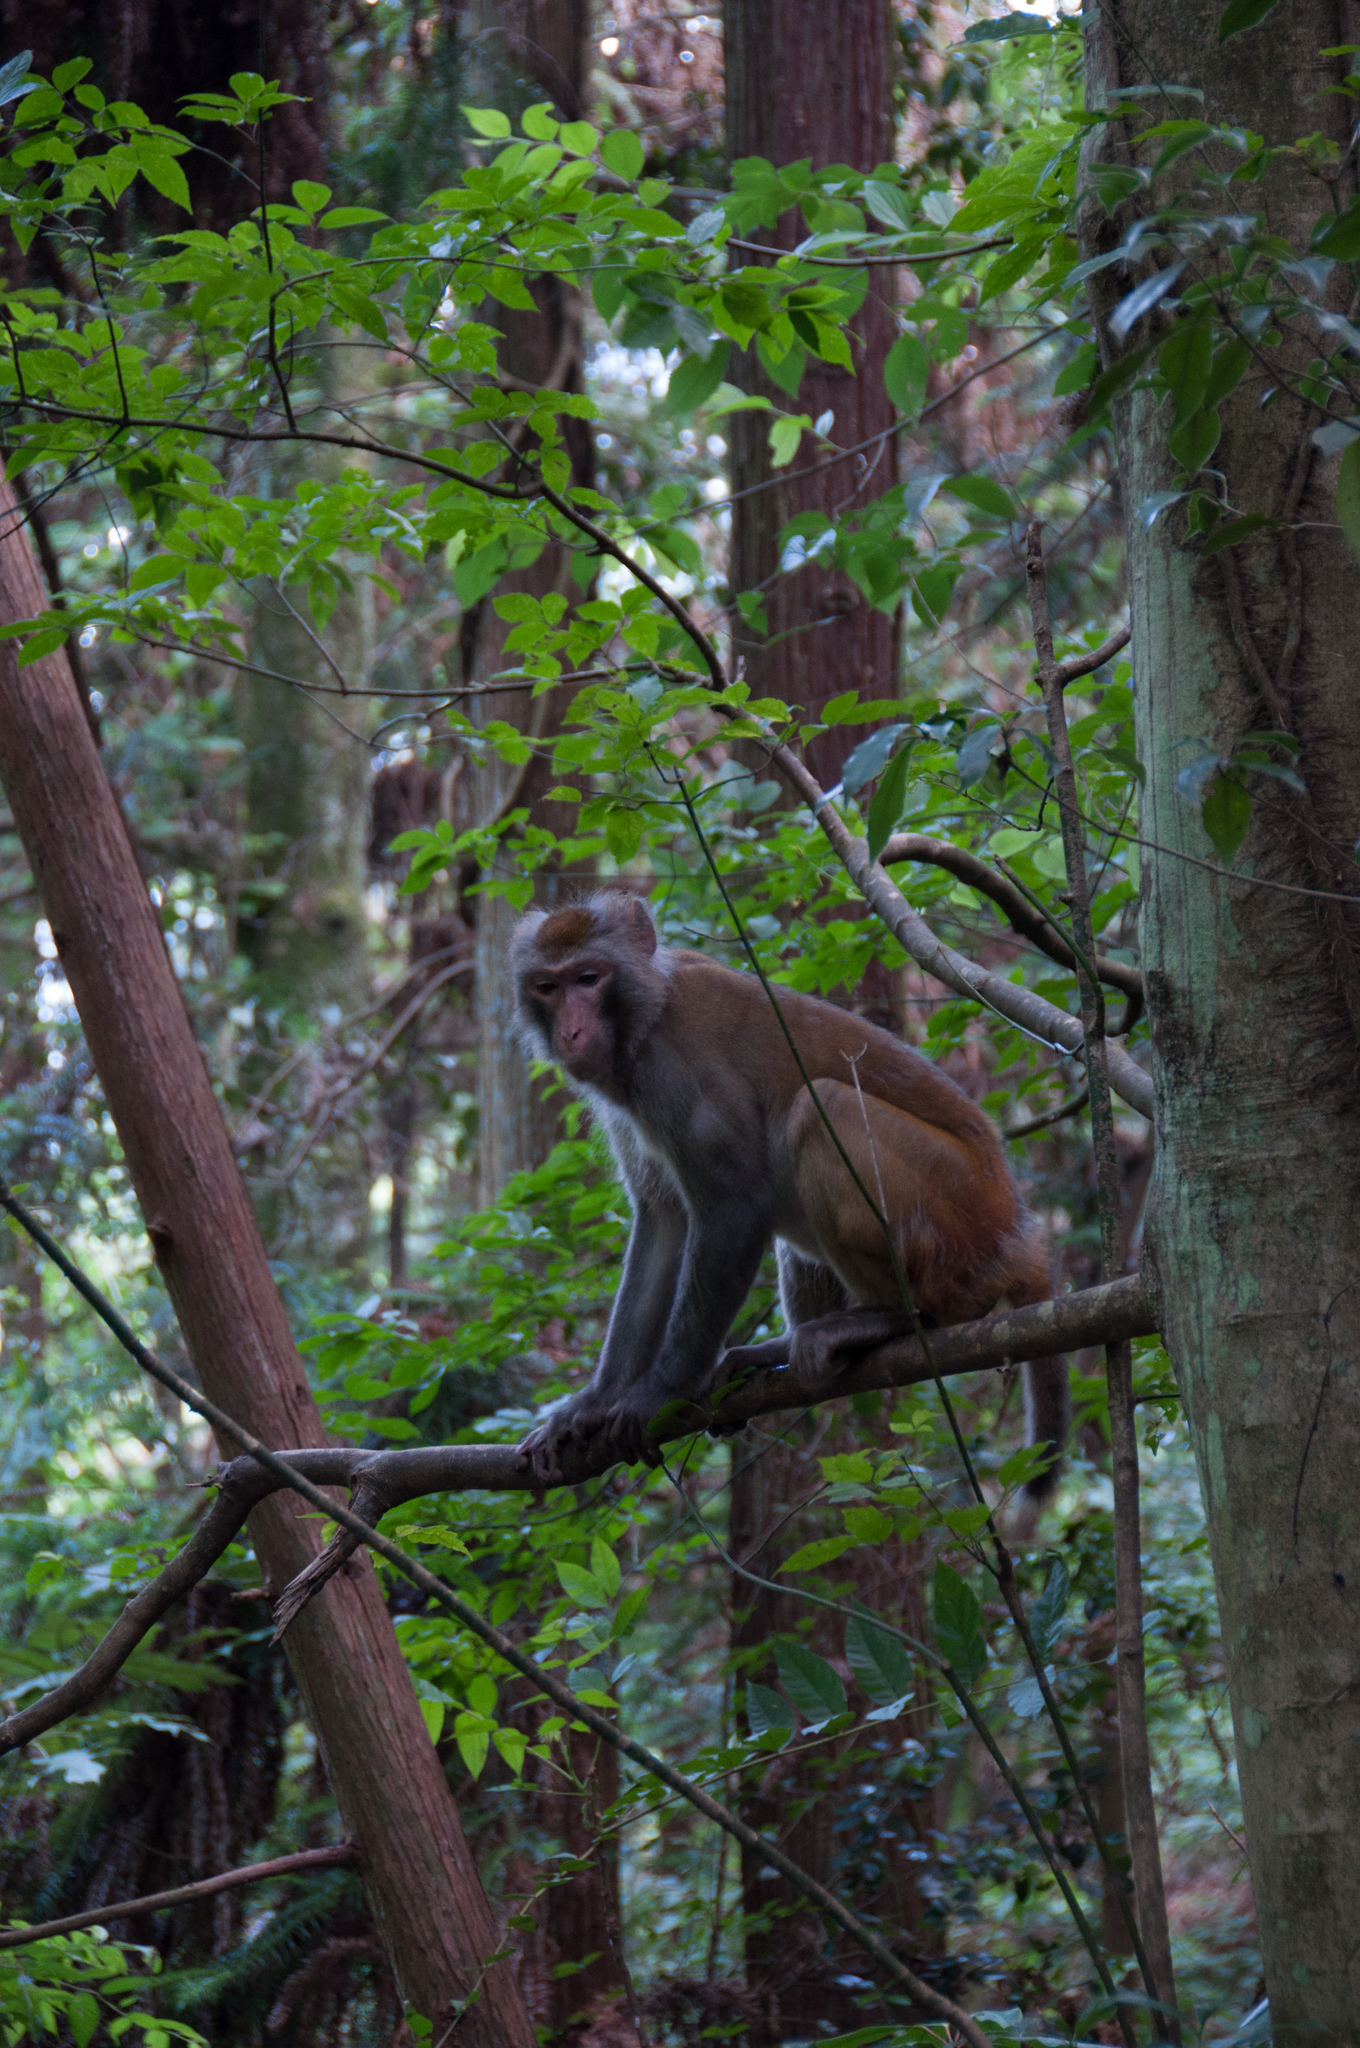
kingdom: Animalia
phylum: Chordata
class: Mammalia
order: Primates
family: Cercopithecidae
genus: Macaca
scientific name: Macaca mulatta
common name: Rhesus monkey
